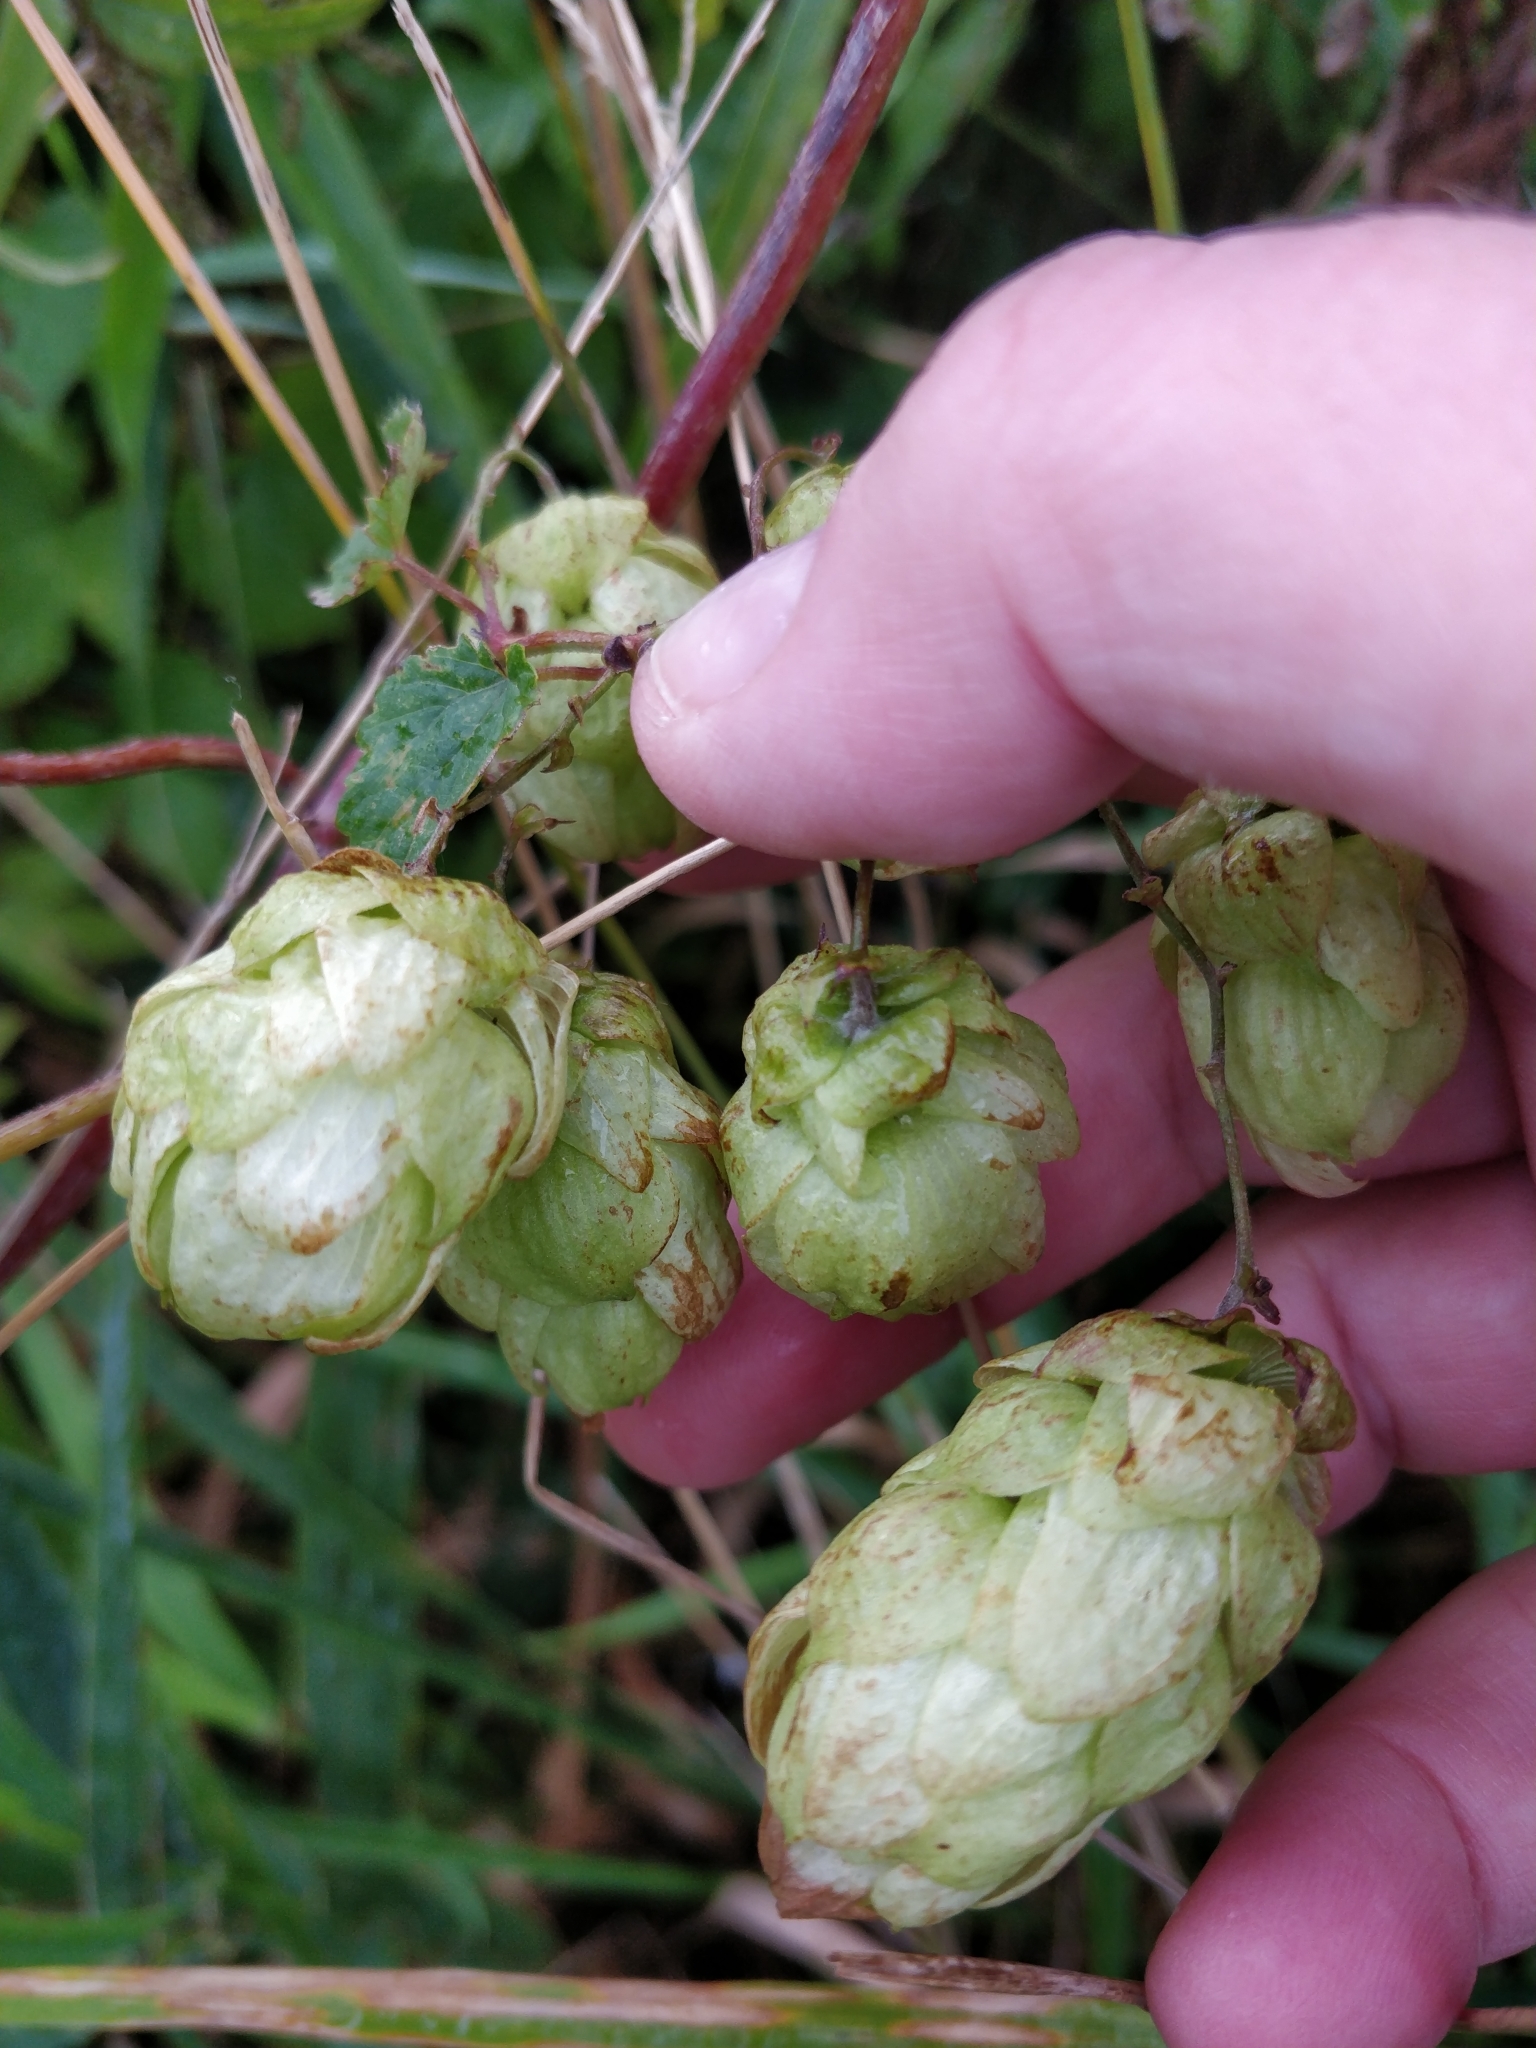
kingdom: Plantae
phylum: Tracheophyta
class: Magnoliopsida
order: Rosales
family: Cannabaceae
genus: Humulus
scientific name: Humulus lupulus
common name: Hop
